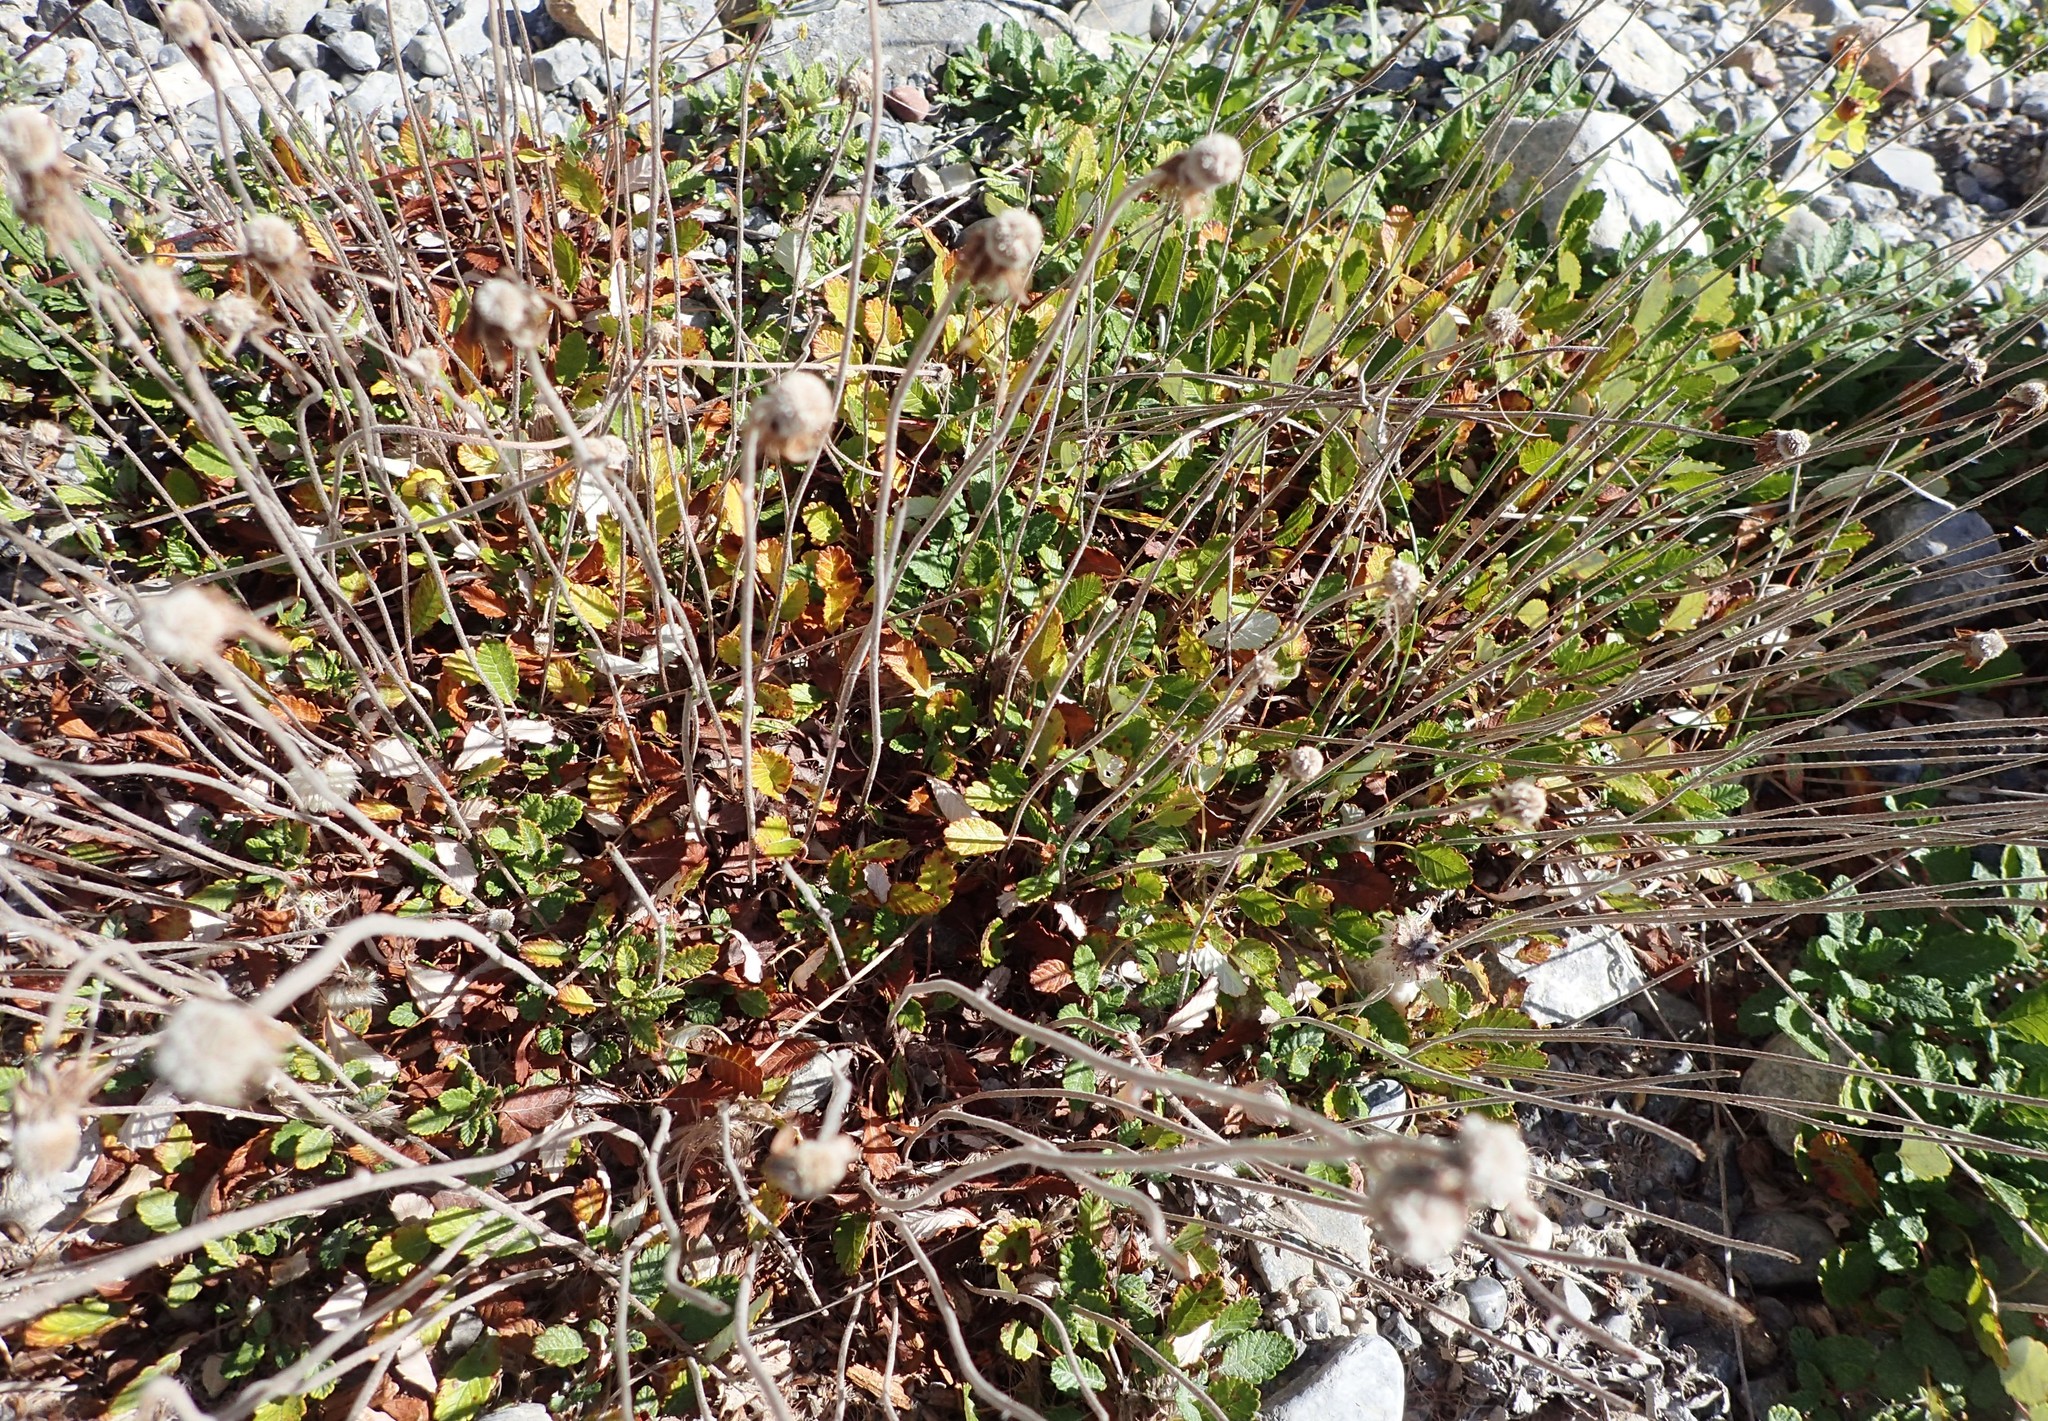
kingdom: Plantae
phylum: Tracheophyta
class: Magnoliopsida
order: Rosales
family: Rosaceae
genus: Dryas
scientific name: Dryas drummondii
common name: Drummond's dryad
